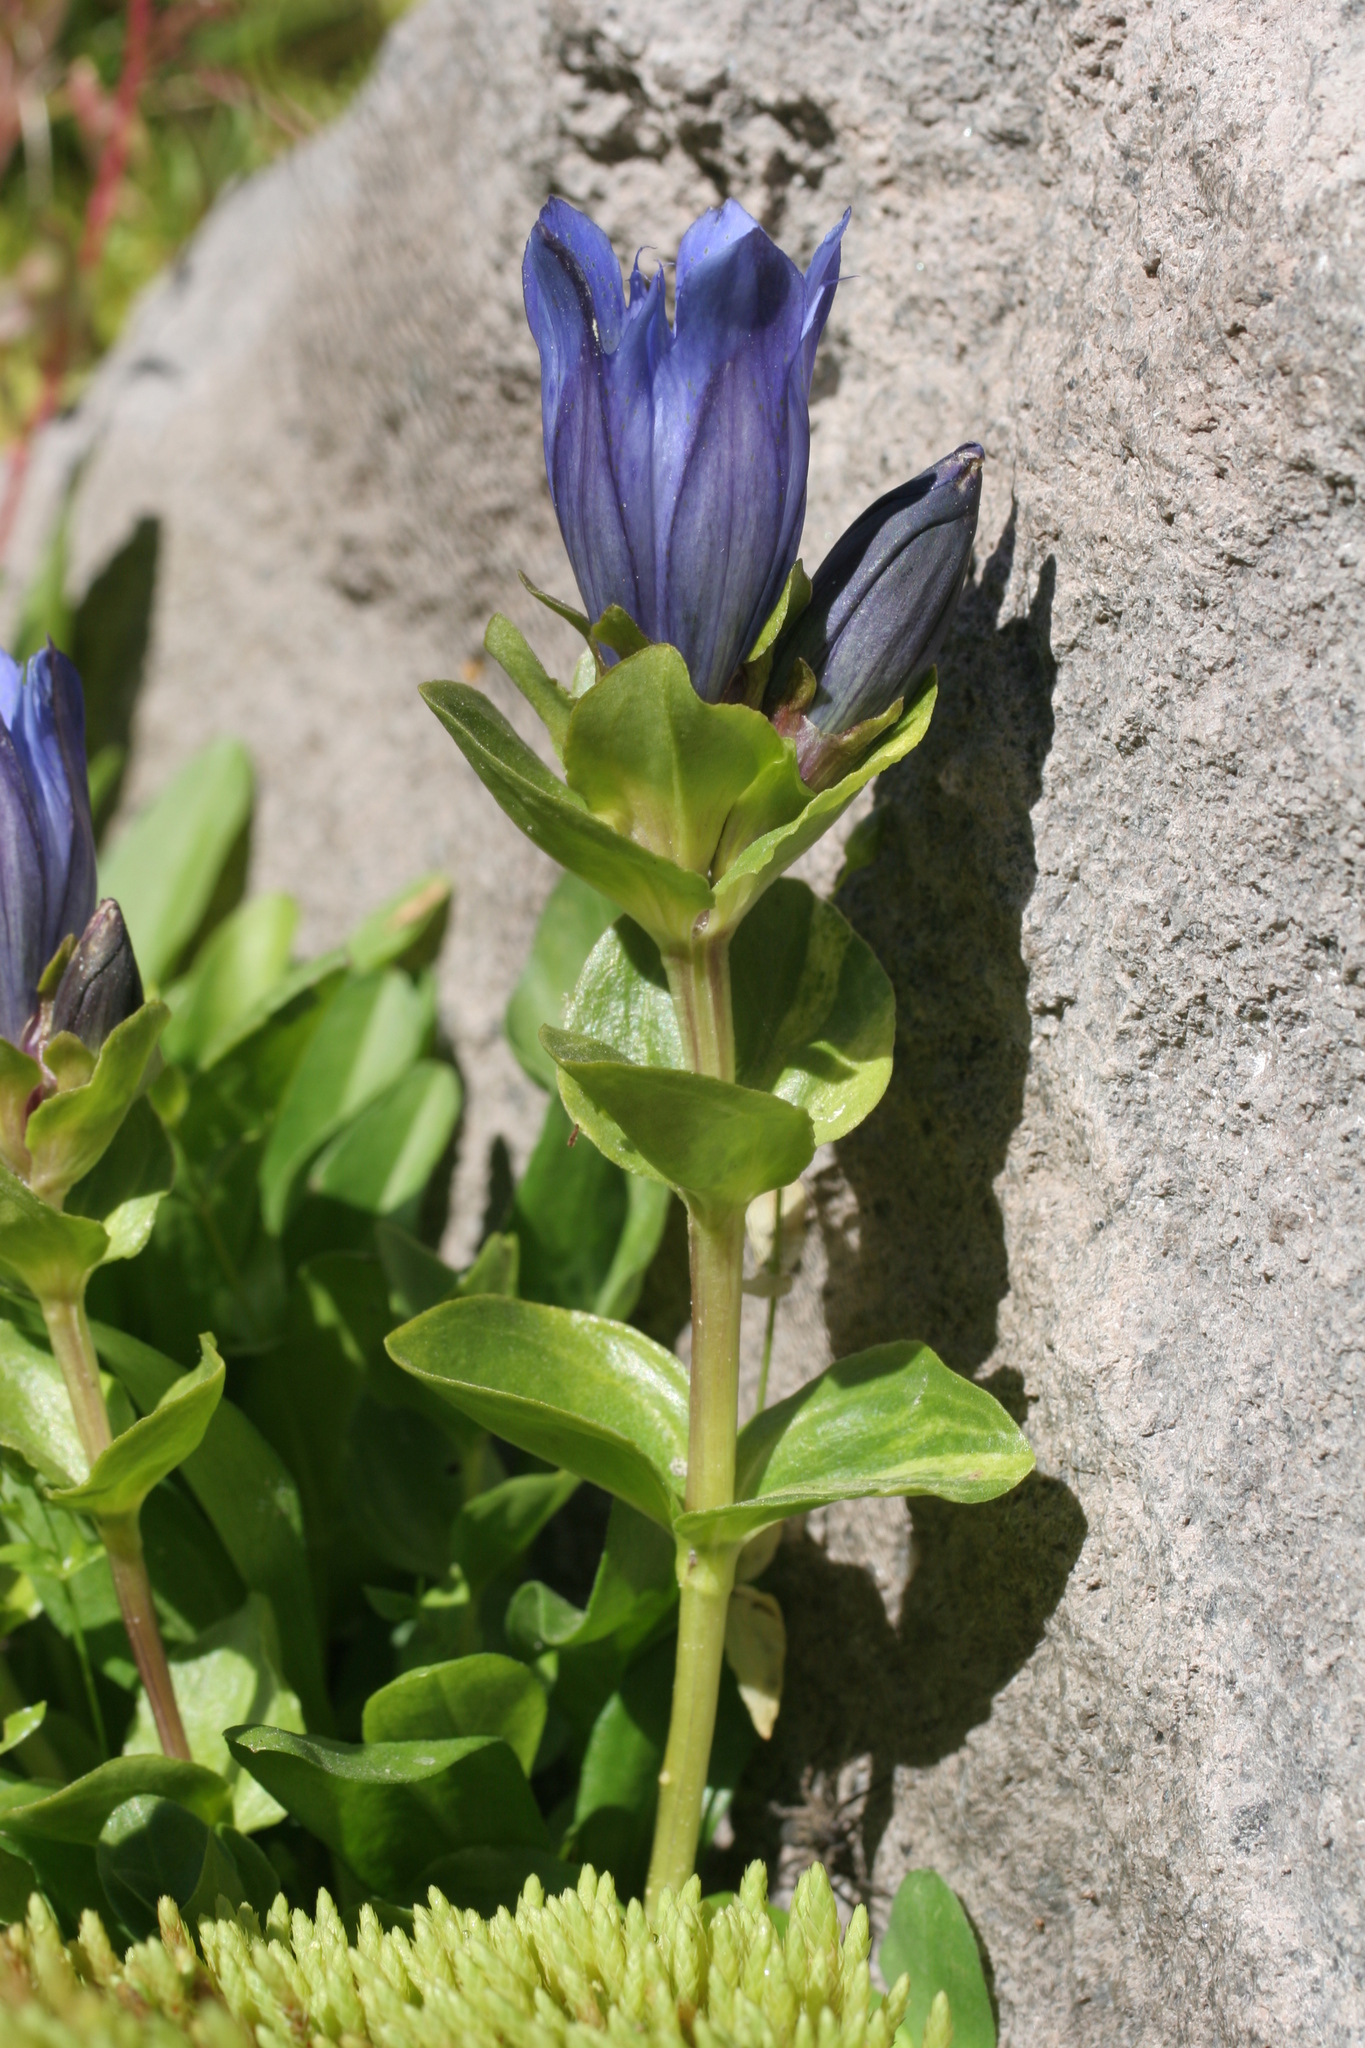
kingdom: Plantae
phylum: Tracheophyta
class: Magnoliopsida
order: Gentianales
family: Gentianaceae
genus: Gentiana
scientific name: Gentiana calycosa
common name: Rainier pleated gentian
